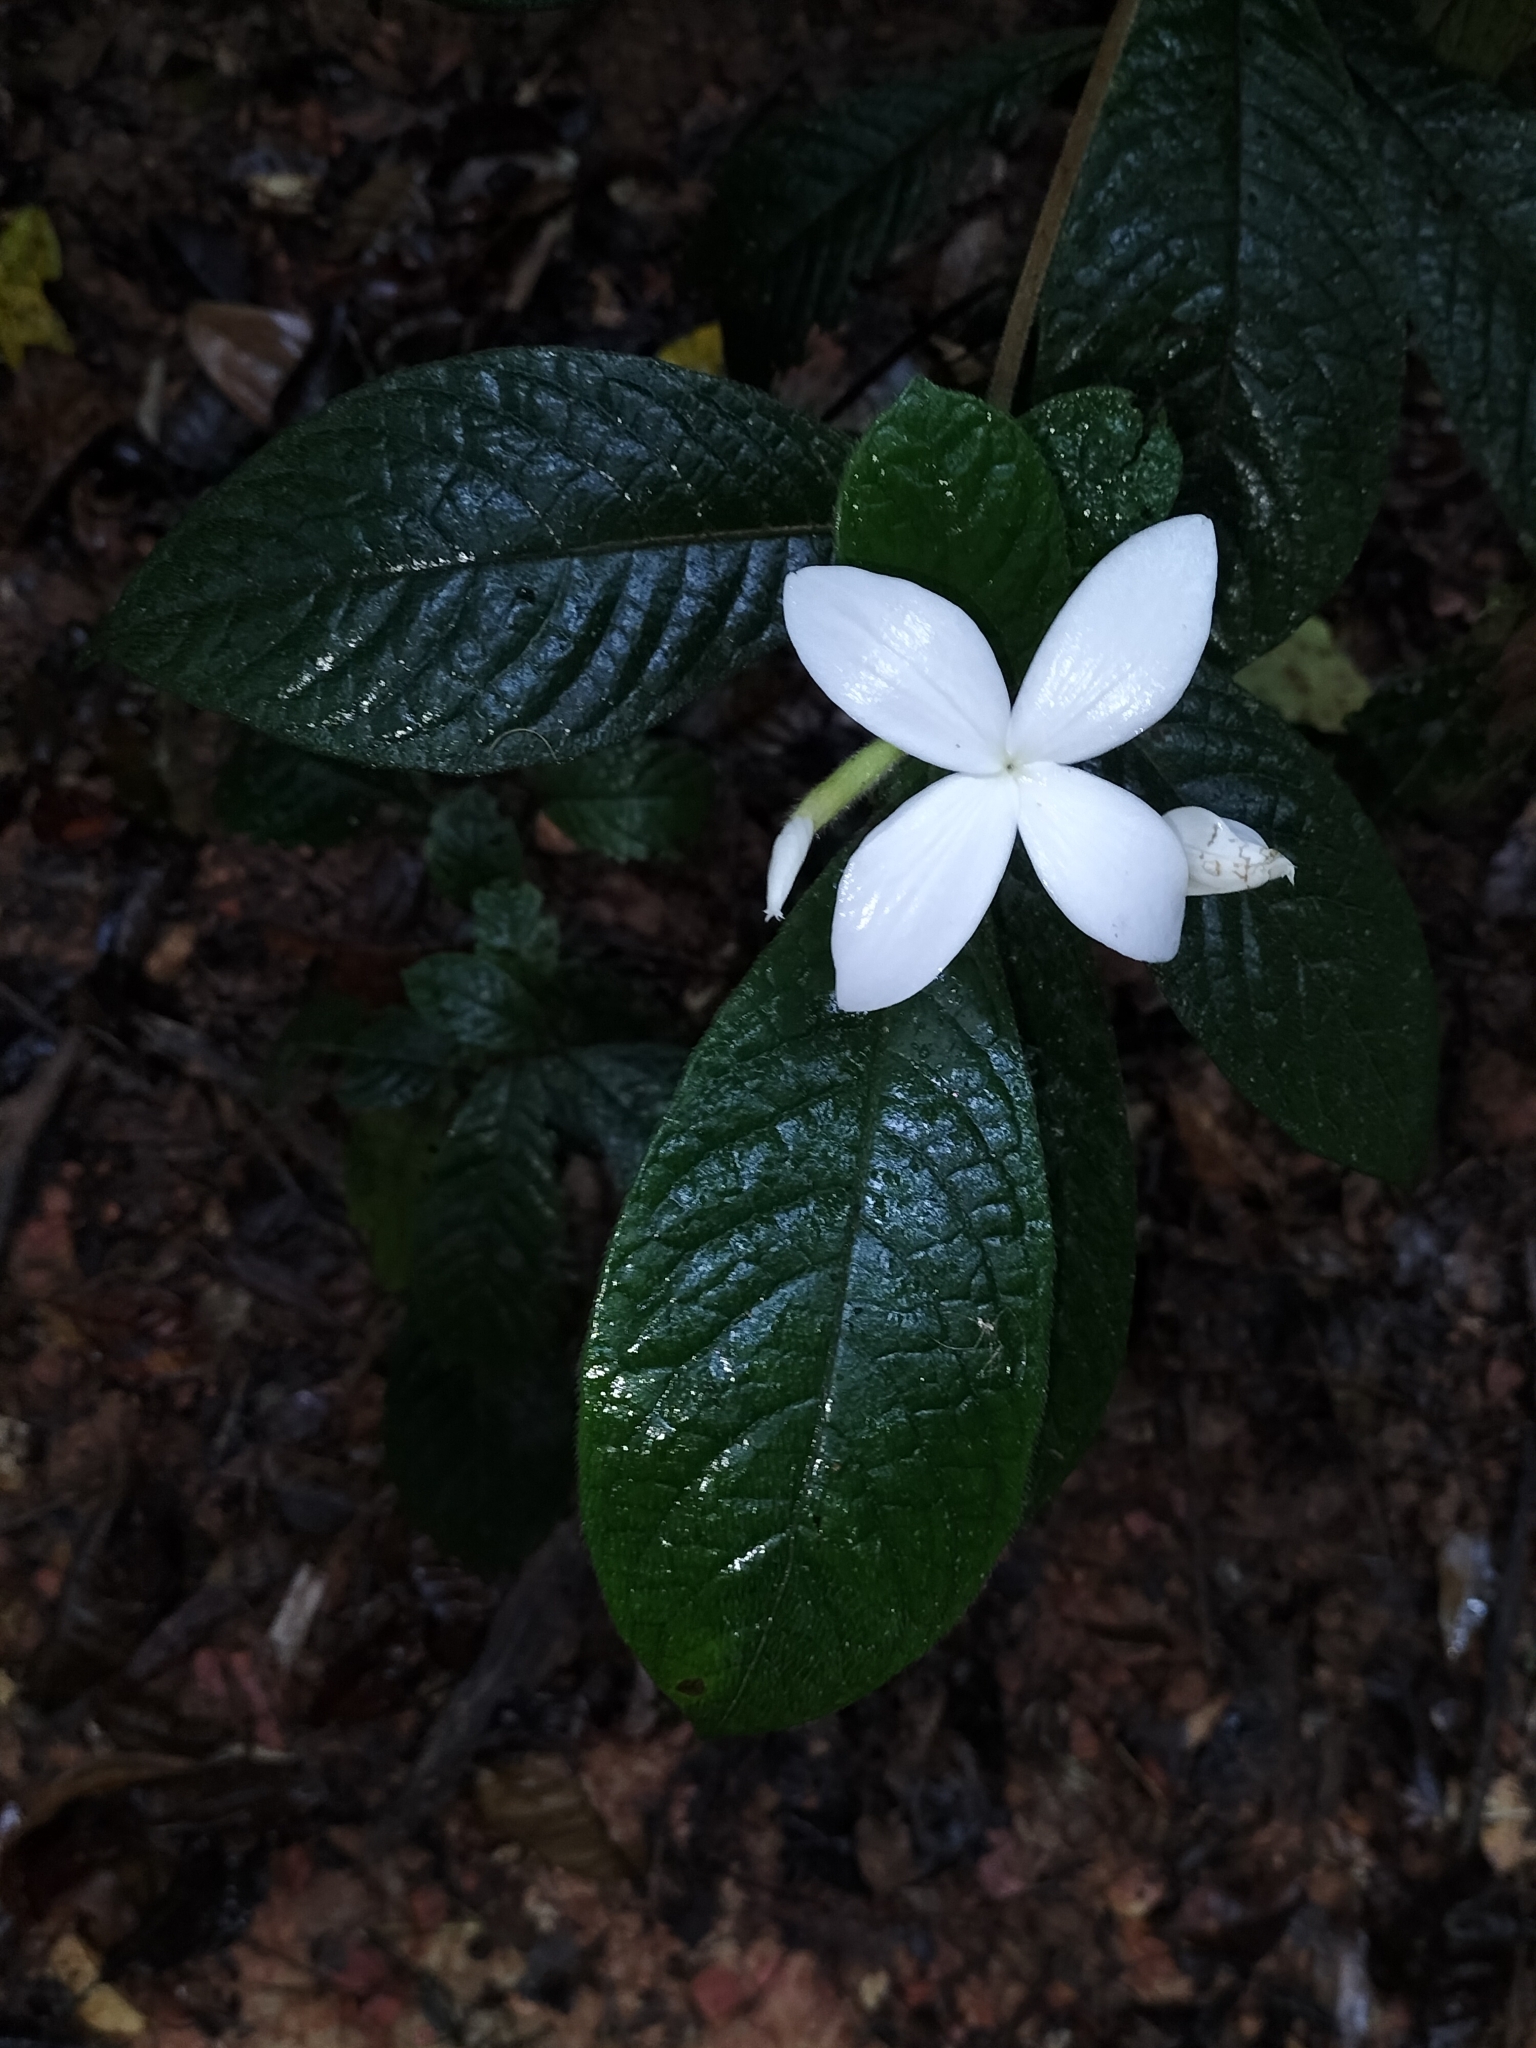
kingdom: Plantae
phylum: Tracheophyta
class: Magnoliopsida
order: Gentianales
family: Rubiaceae
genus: Atractocarpus
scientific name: Atractocarpus hirtus
